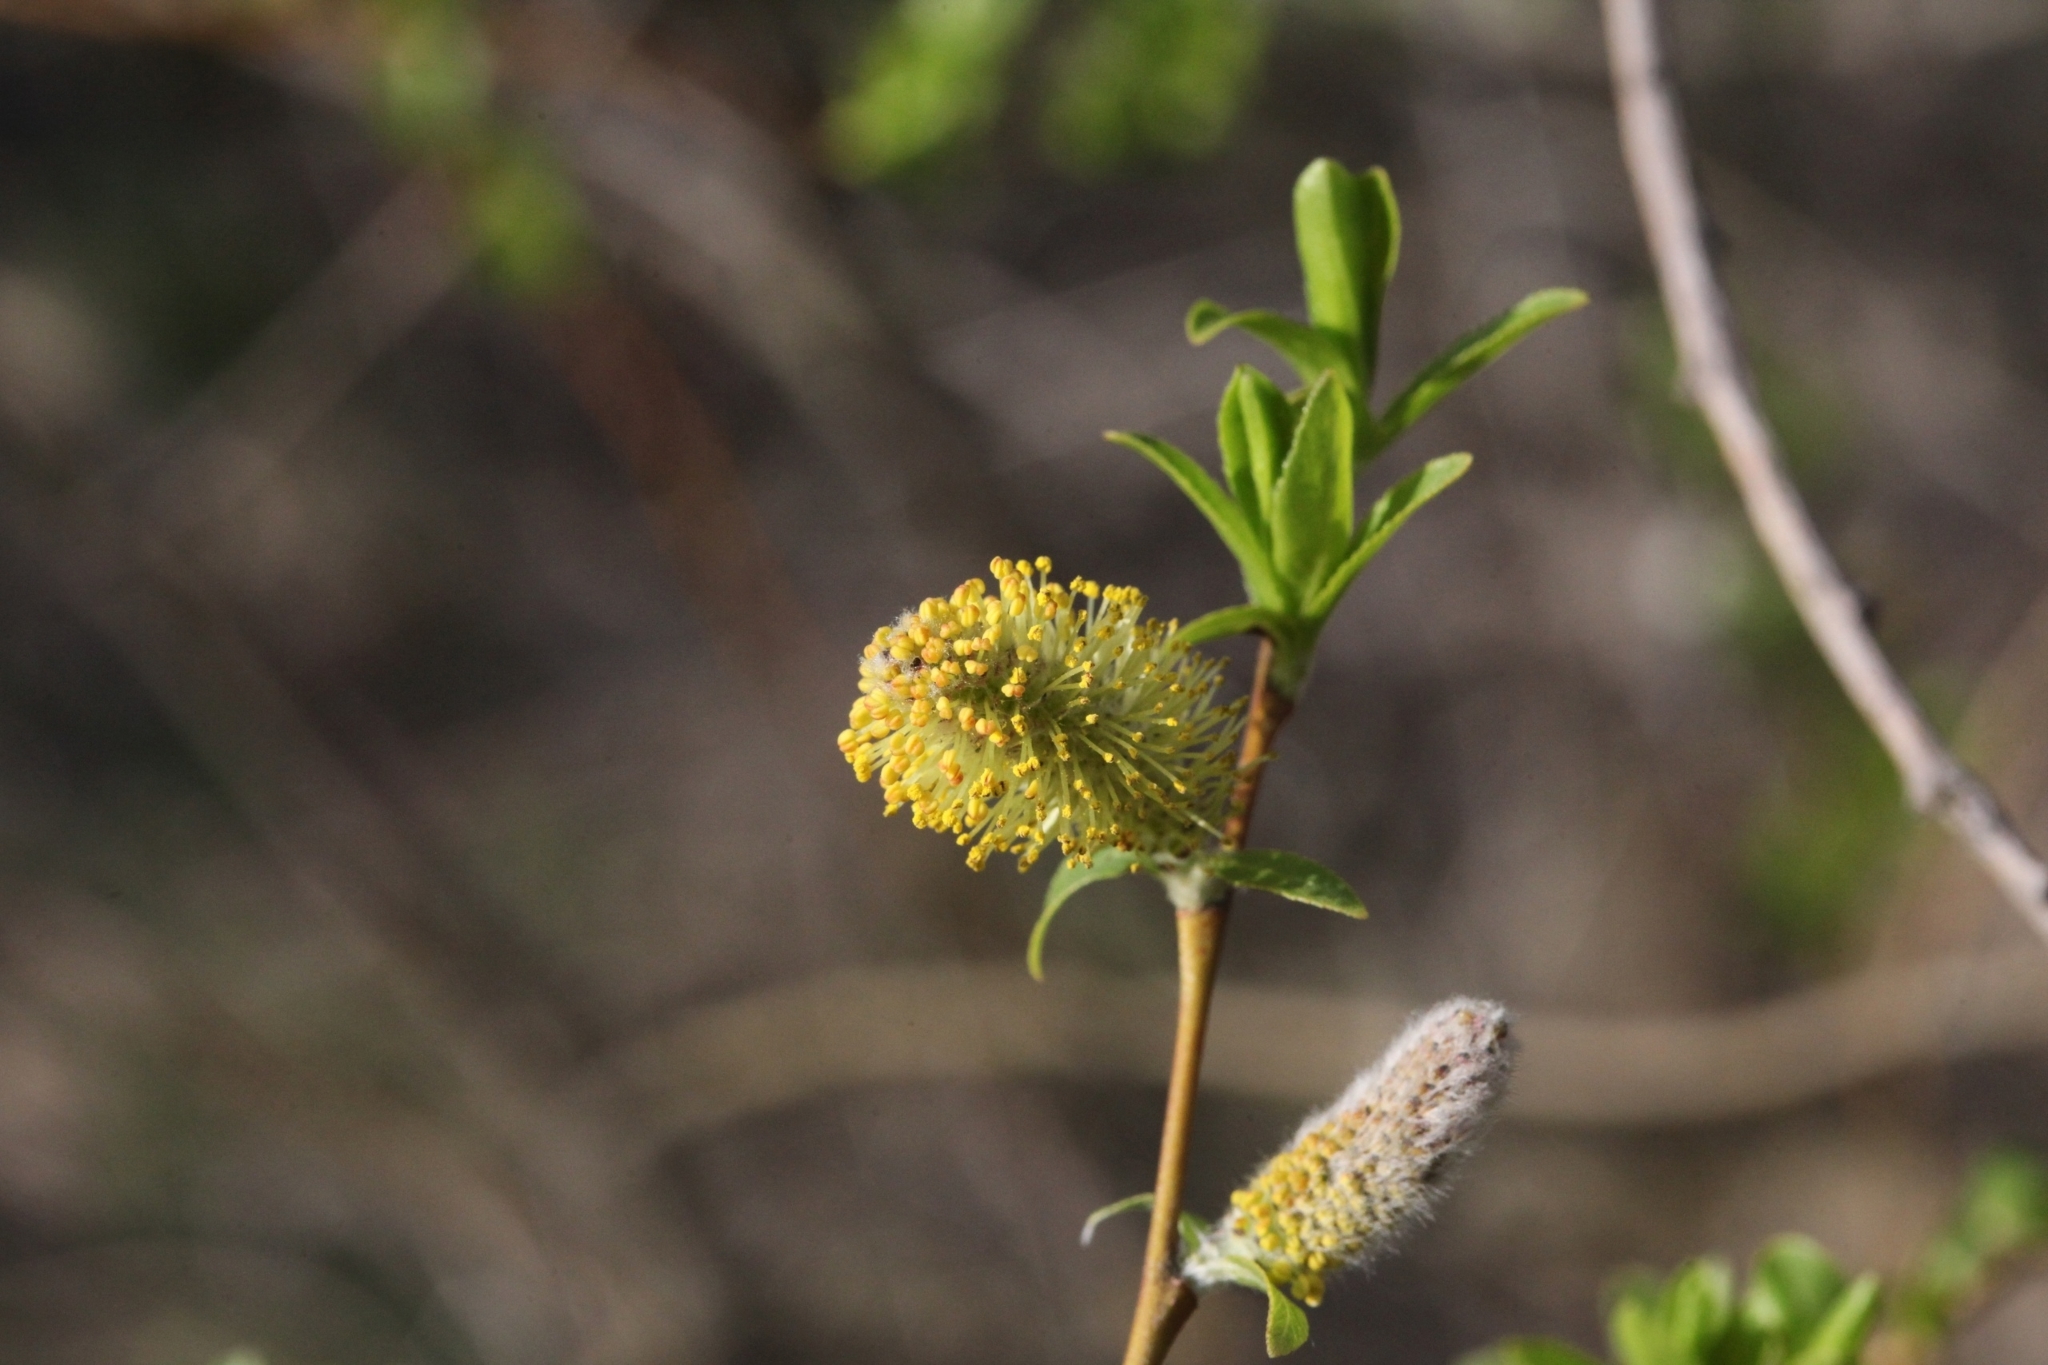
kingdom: Plantae
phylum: Tracheophyta
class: Magnoliopsida
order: Malpighiales
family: Salicaceae
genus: Salix
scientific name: Salix cinerea
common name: Common sallow
